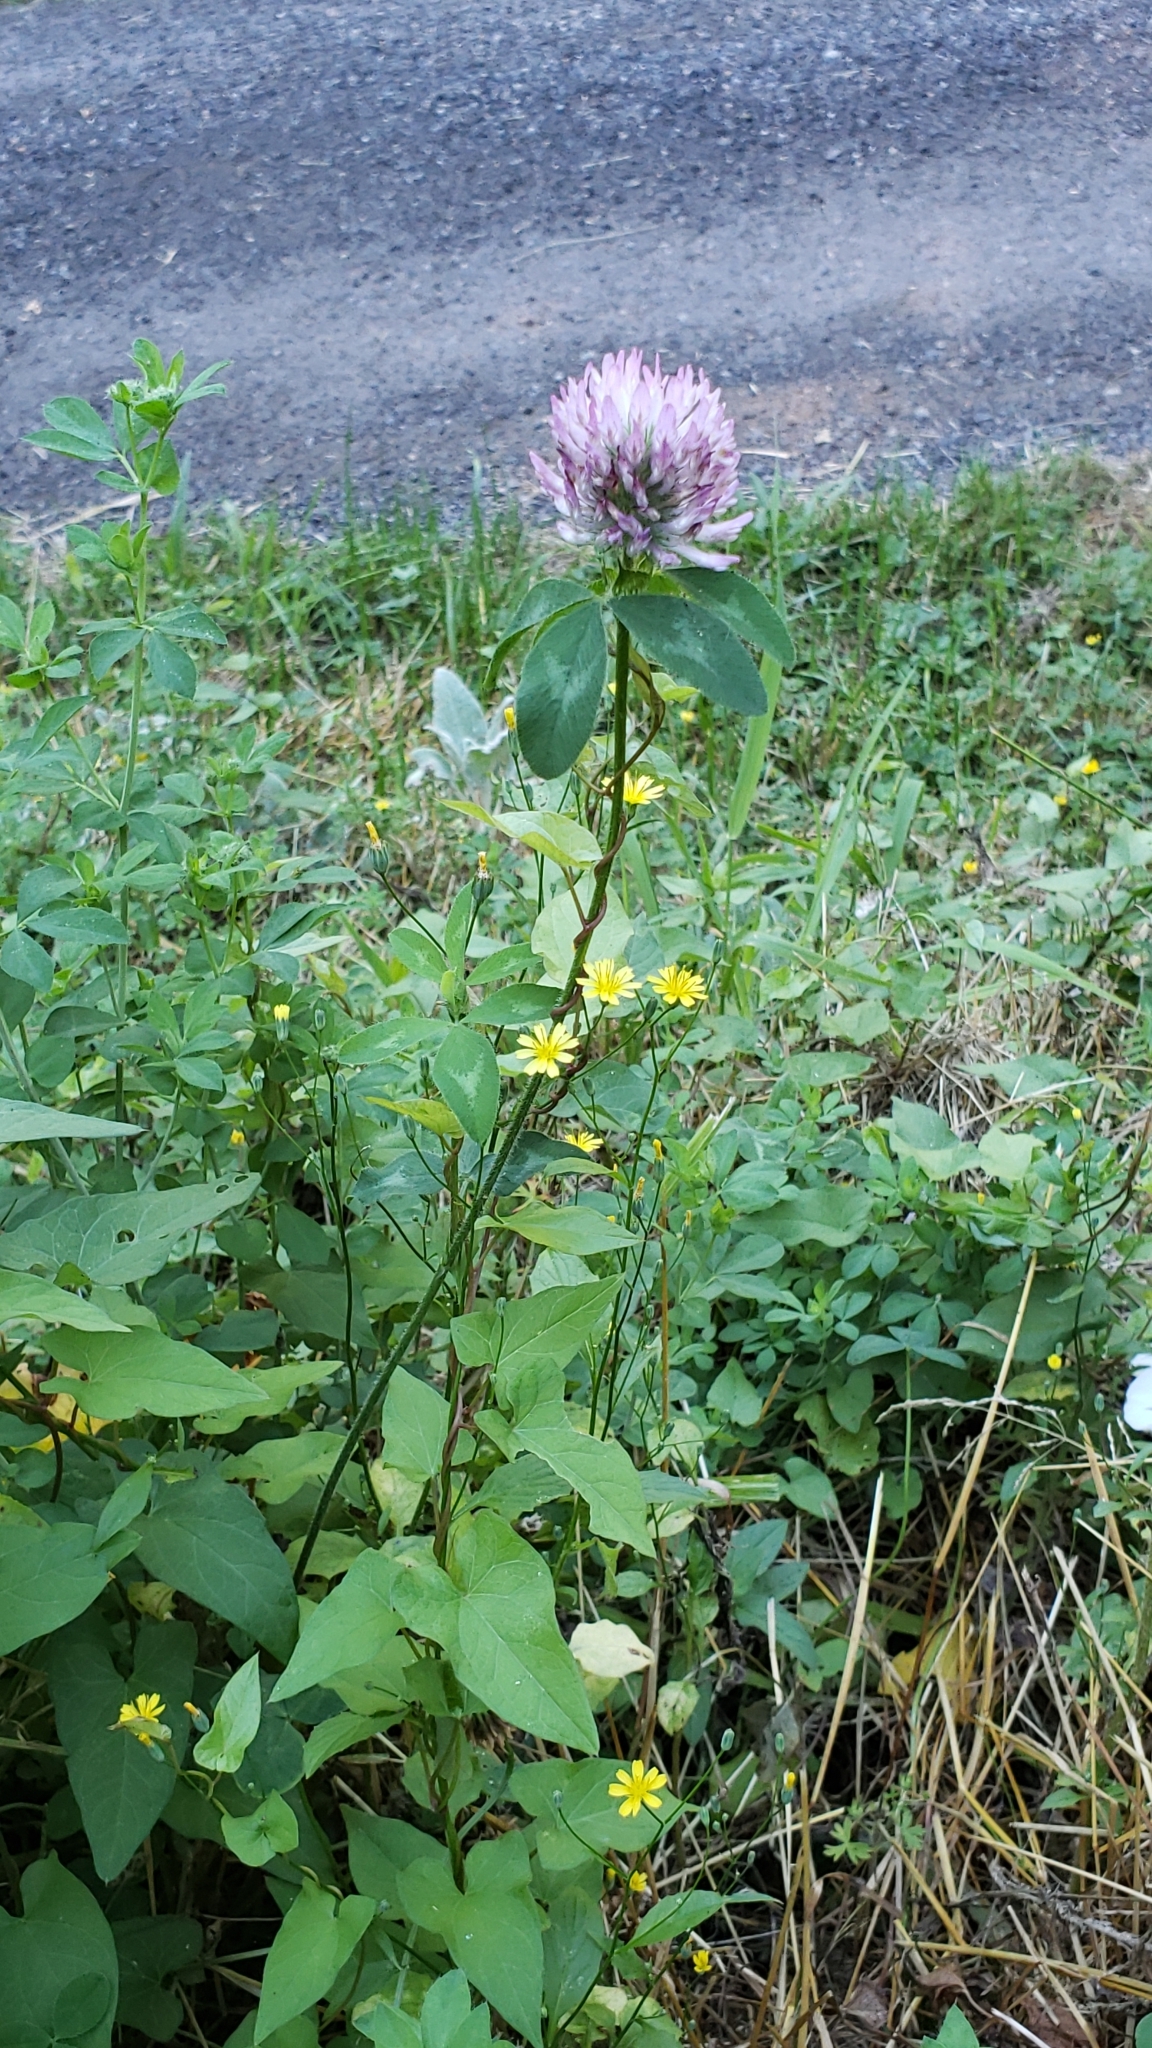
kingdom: Plantae
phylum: Tracheophyta
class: Magnoliopsida
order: Fabales
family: Fabaceae
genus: Trifolium
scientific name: Trifolium pratense
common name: Red clover
